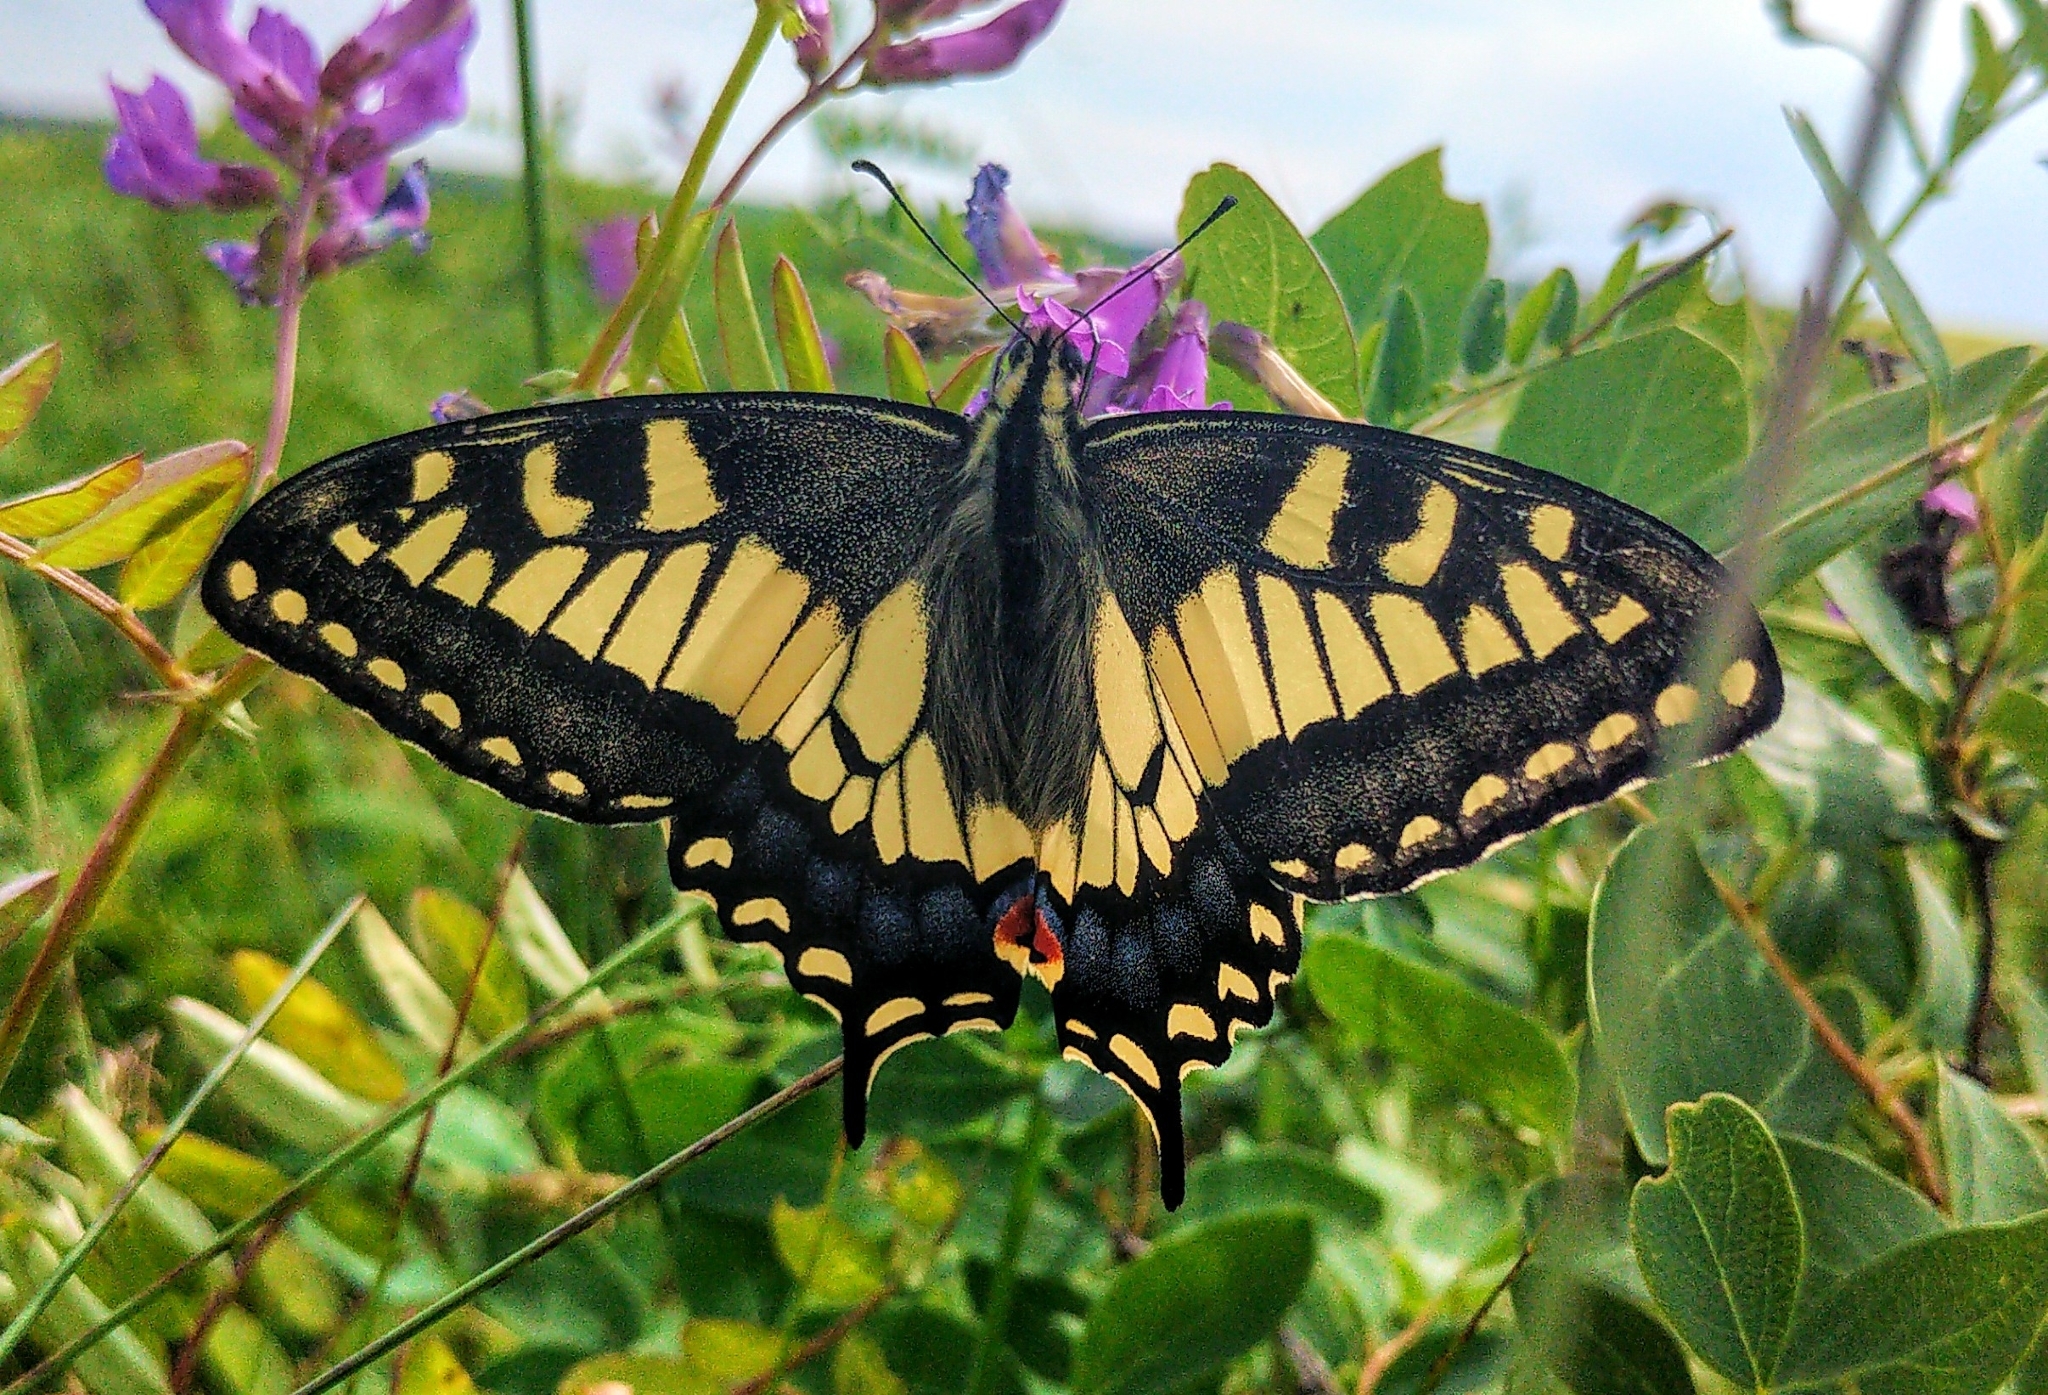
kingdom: Animalia
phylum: Arthropoda
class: Insecta
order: Lepidoptera
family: Papilionidae
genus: Papilio
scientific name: Papilio machaon
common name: Swallowtail
